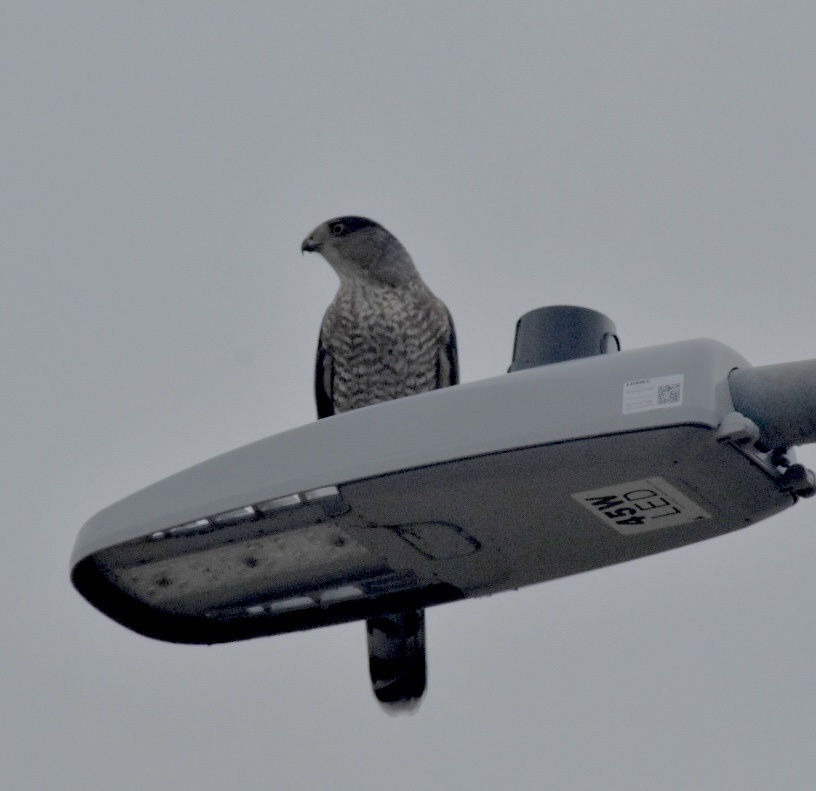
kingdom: Animalia
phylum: Chordata
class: Aves
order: Accipitriformes
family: Accipitridae
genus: Accipiter
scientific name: Accipiter cooperii
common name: Cooper's hawk
